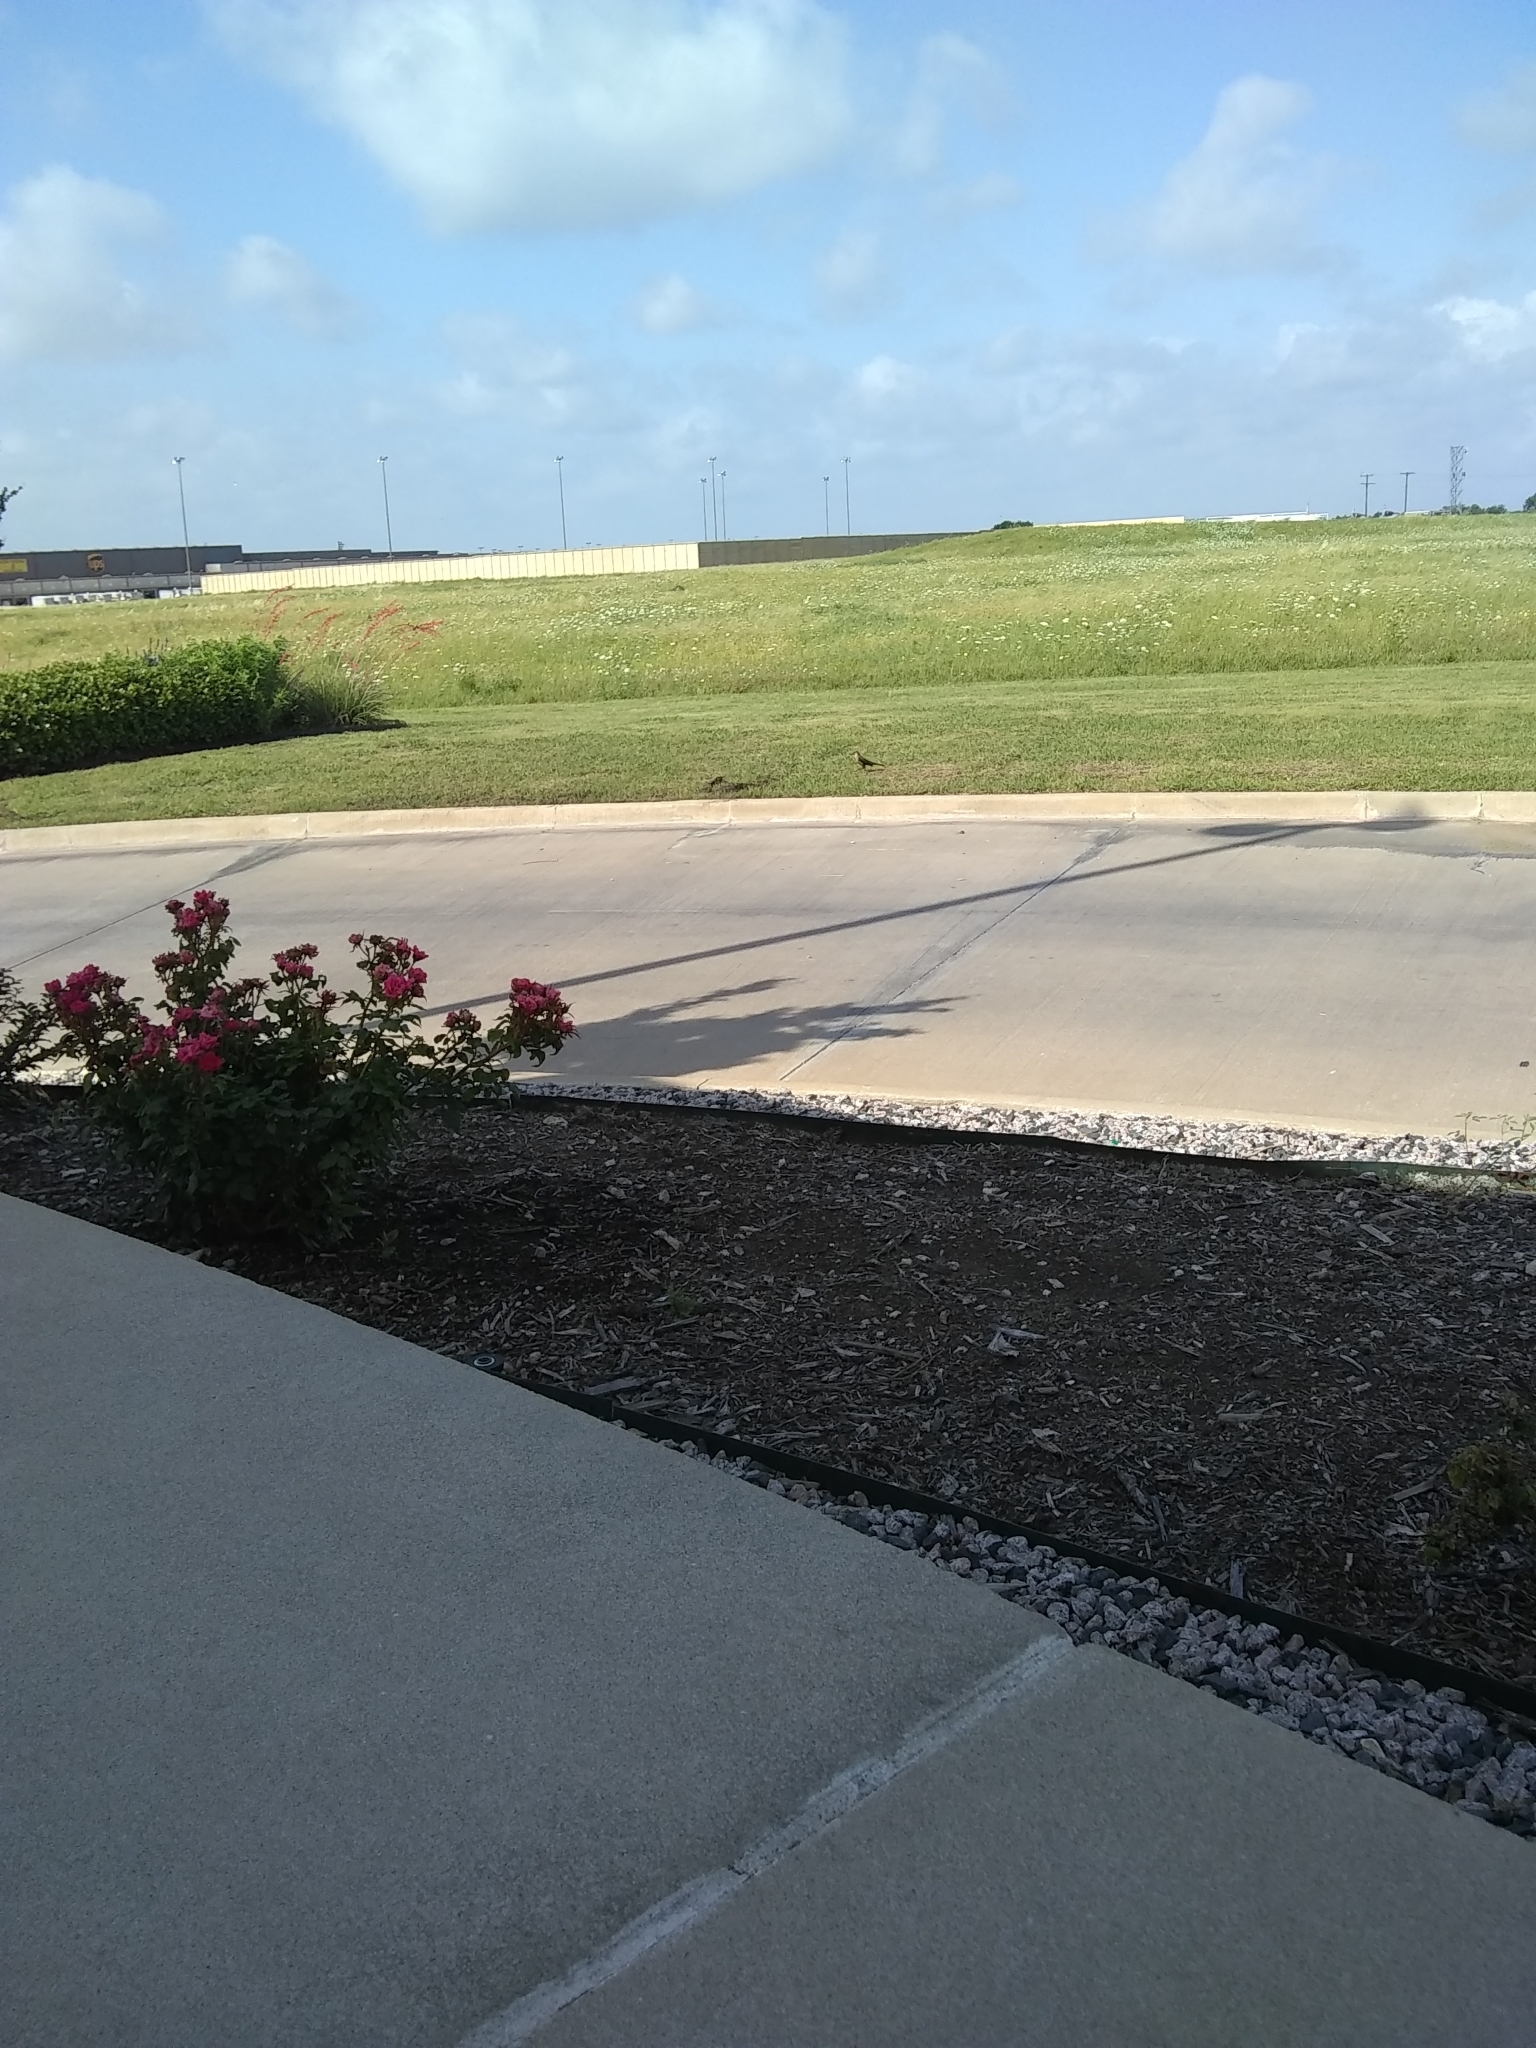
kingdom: Animalia
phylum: Chordata
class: Aves
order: Passeriformes
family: Icteridae
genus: Quiscalus
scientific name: Quiscalus mexicanus
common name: Great-tailed grackle
